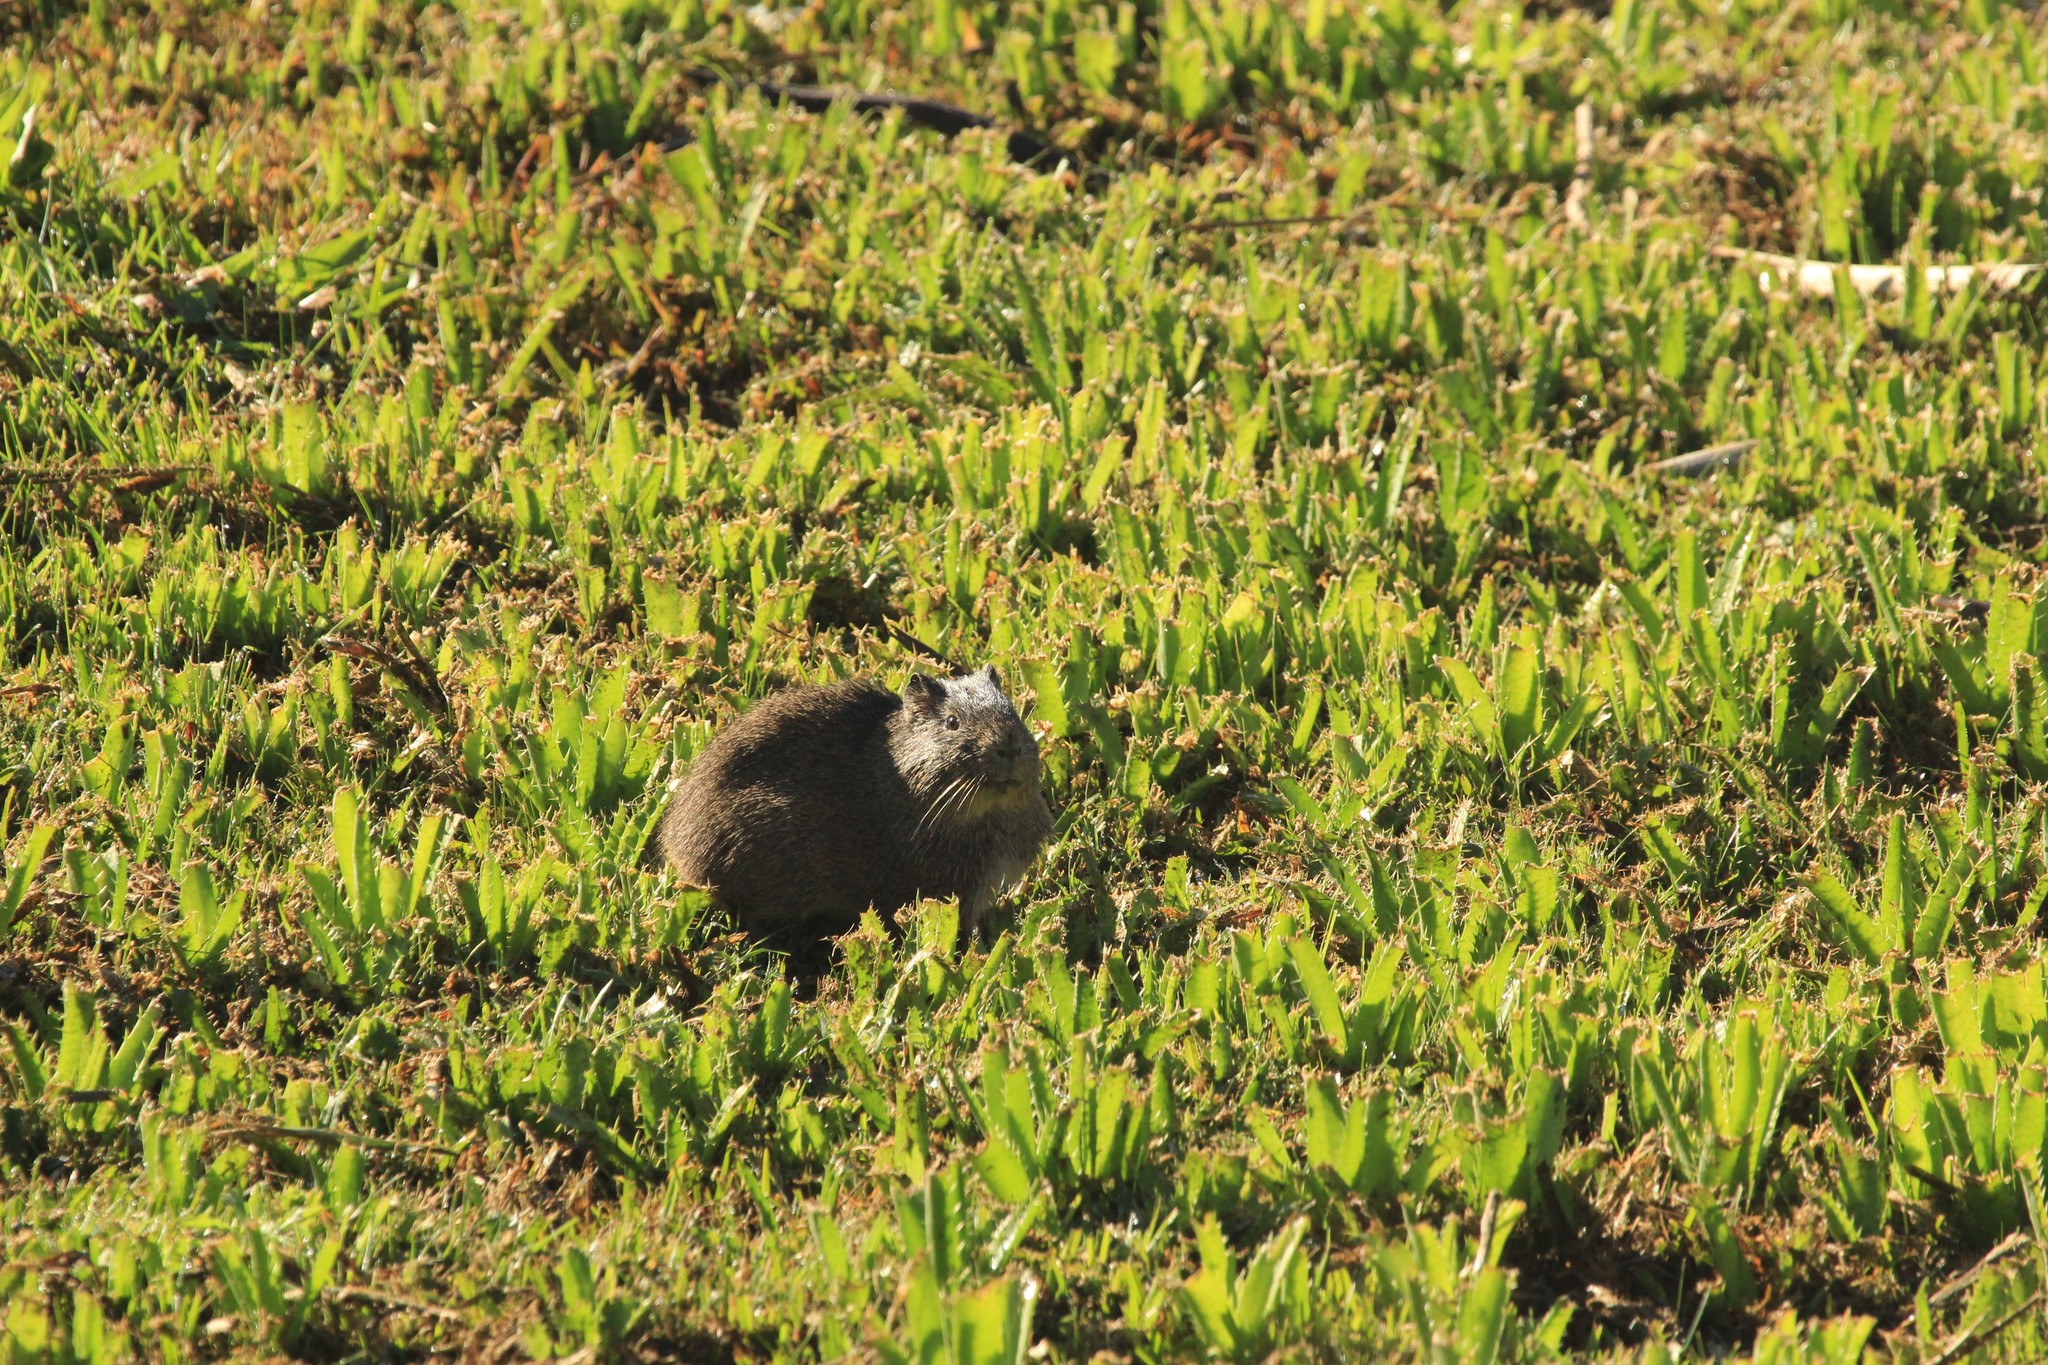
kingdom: Animalia
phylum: Chordata
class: Mammalia
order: Rodentia
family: Caviidae
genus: Cavia
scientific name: Cavia aperea
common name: Brazilian guinea pig
